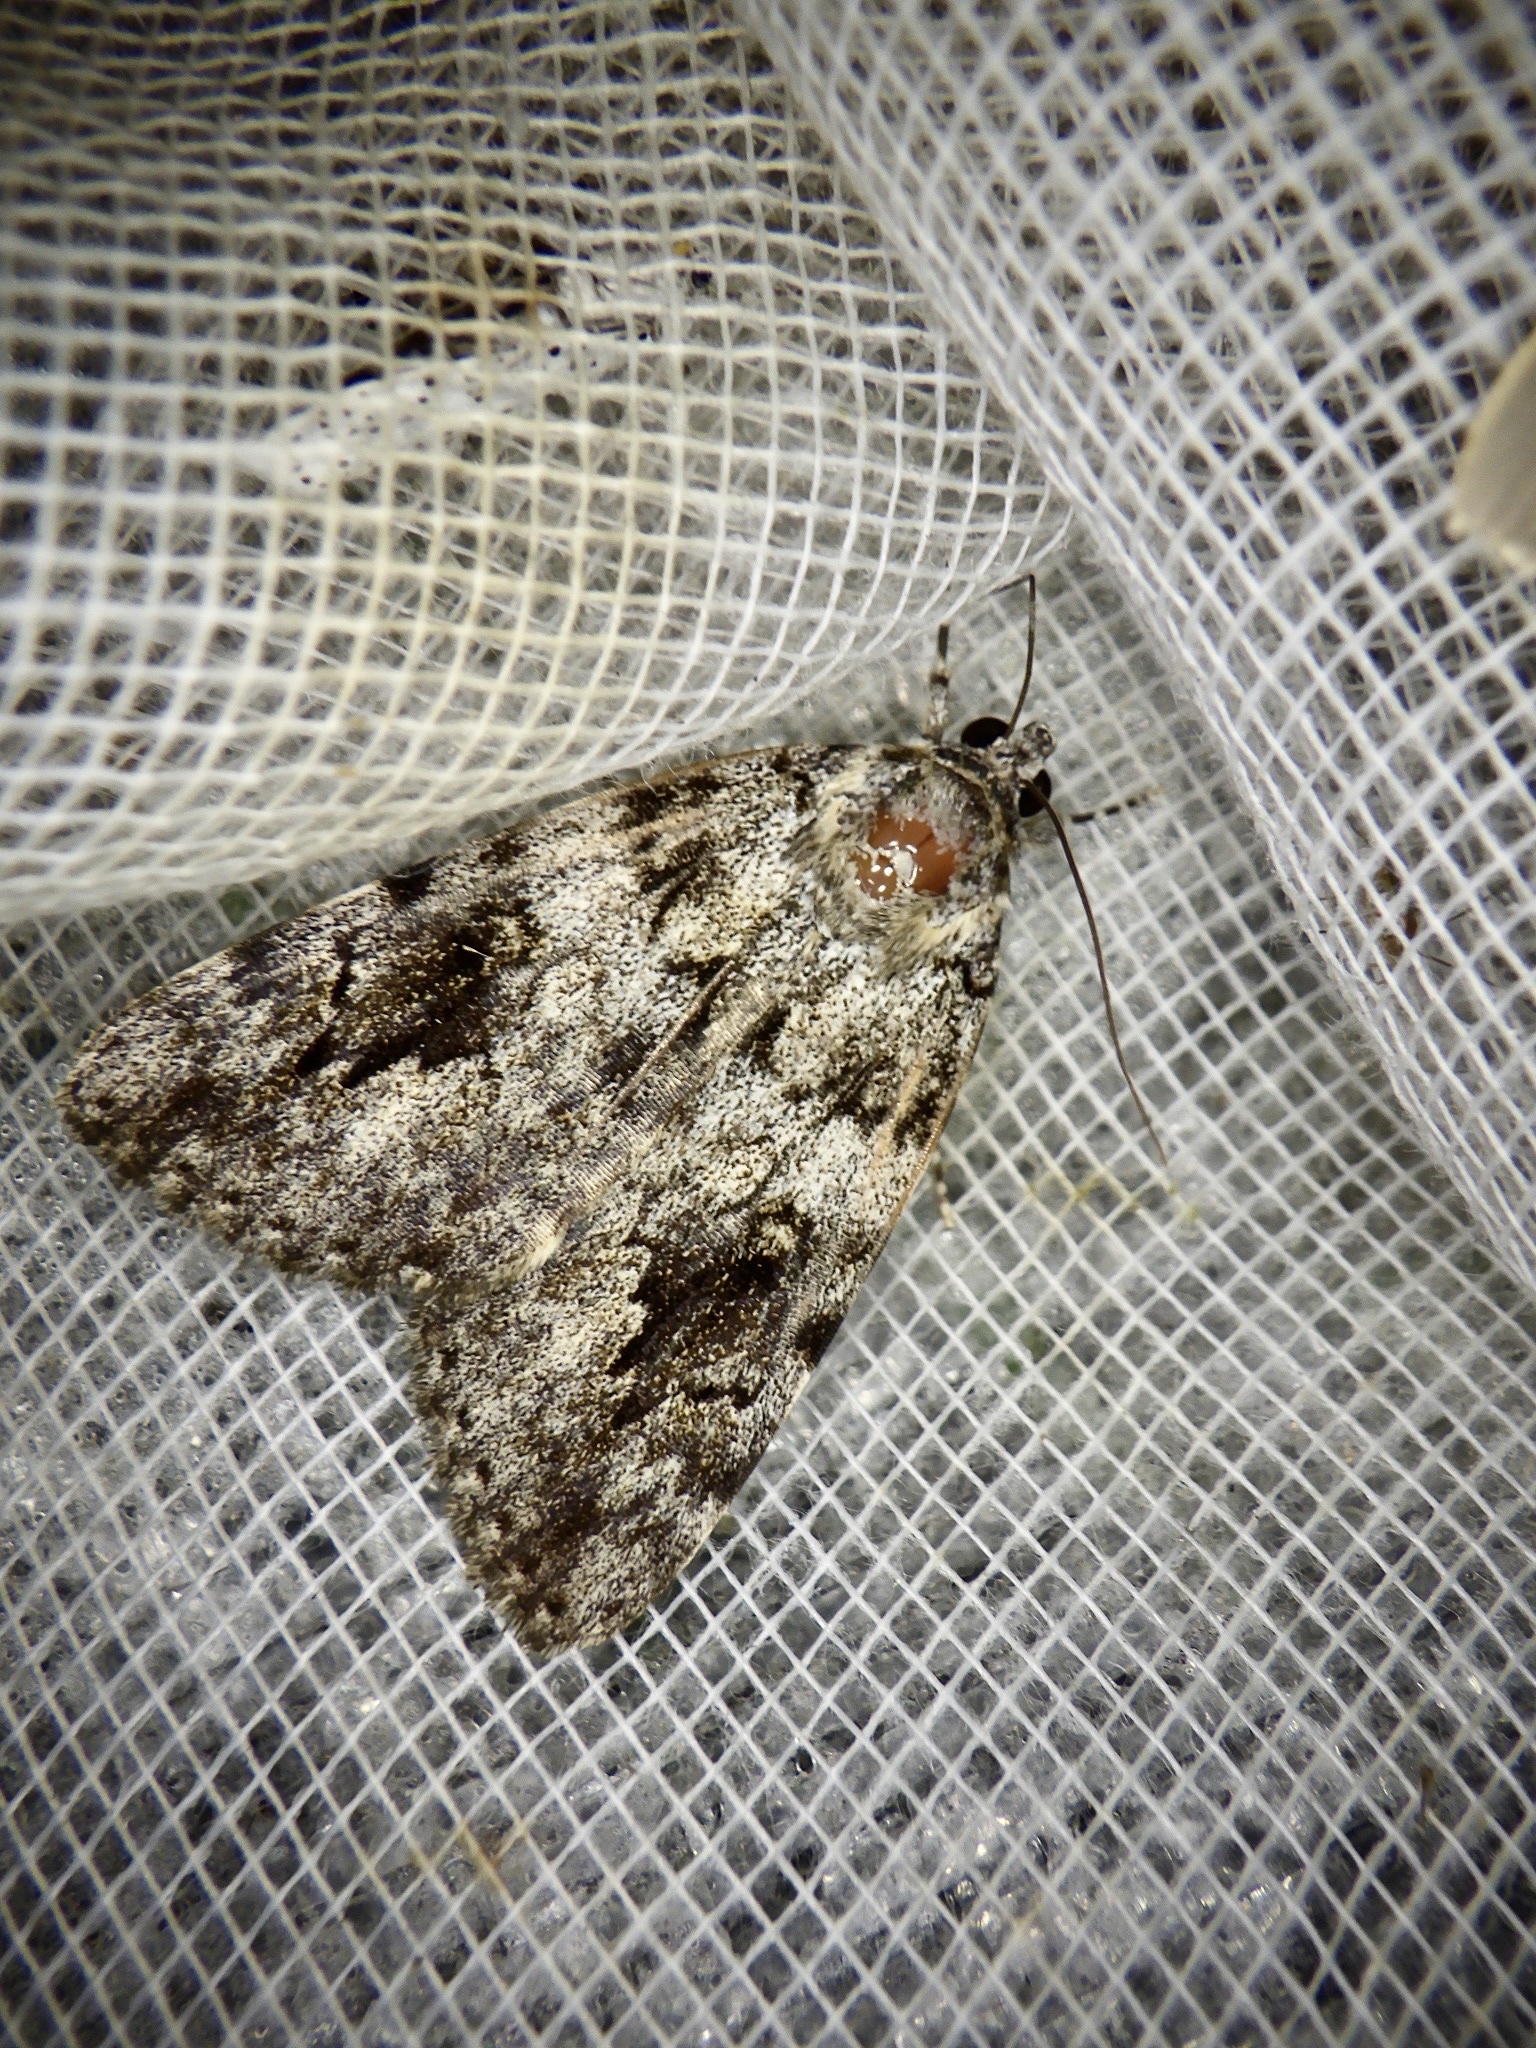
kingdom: Animalia
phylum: Arthropoda
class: Insecta
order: Lepidoptera
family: Erebidae
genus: Catocala
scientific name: Catocala duplicata
